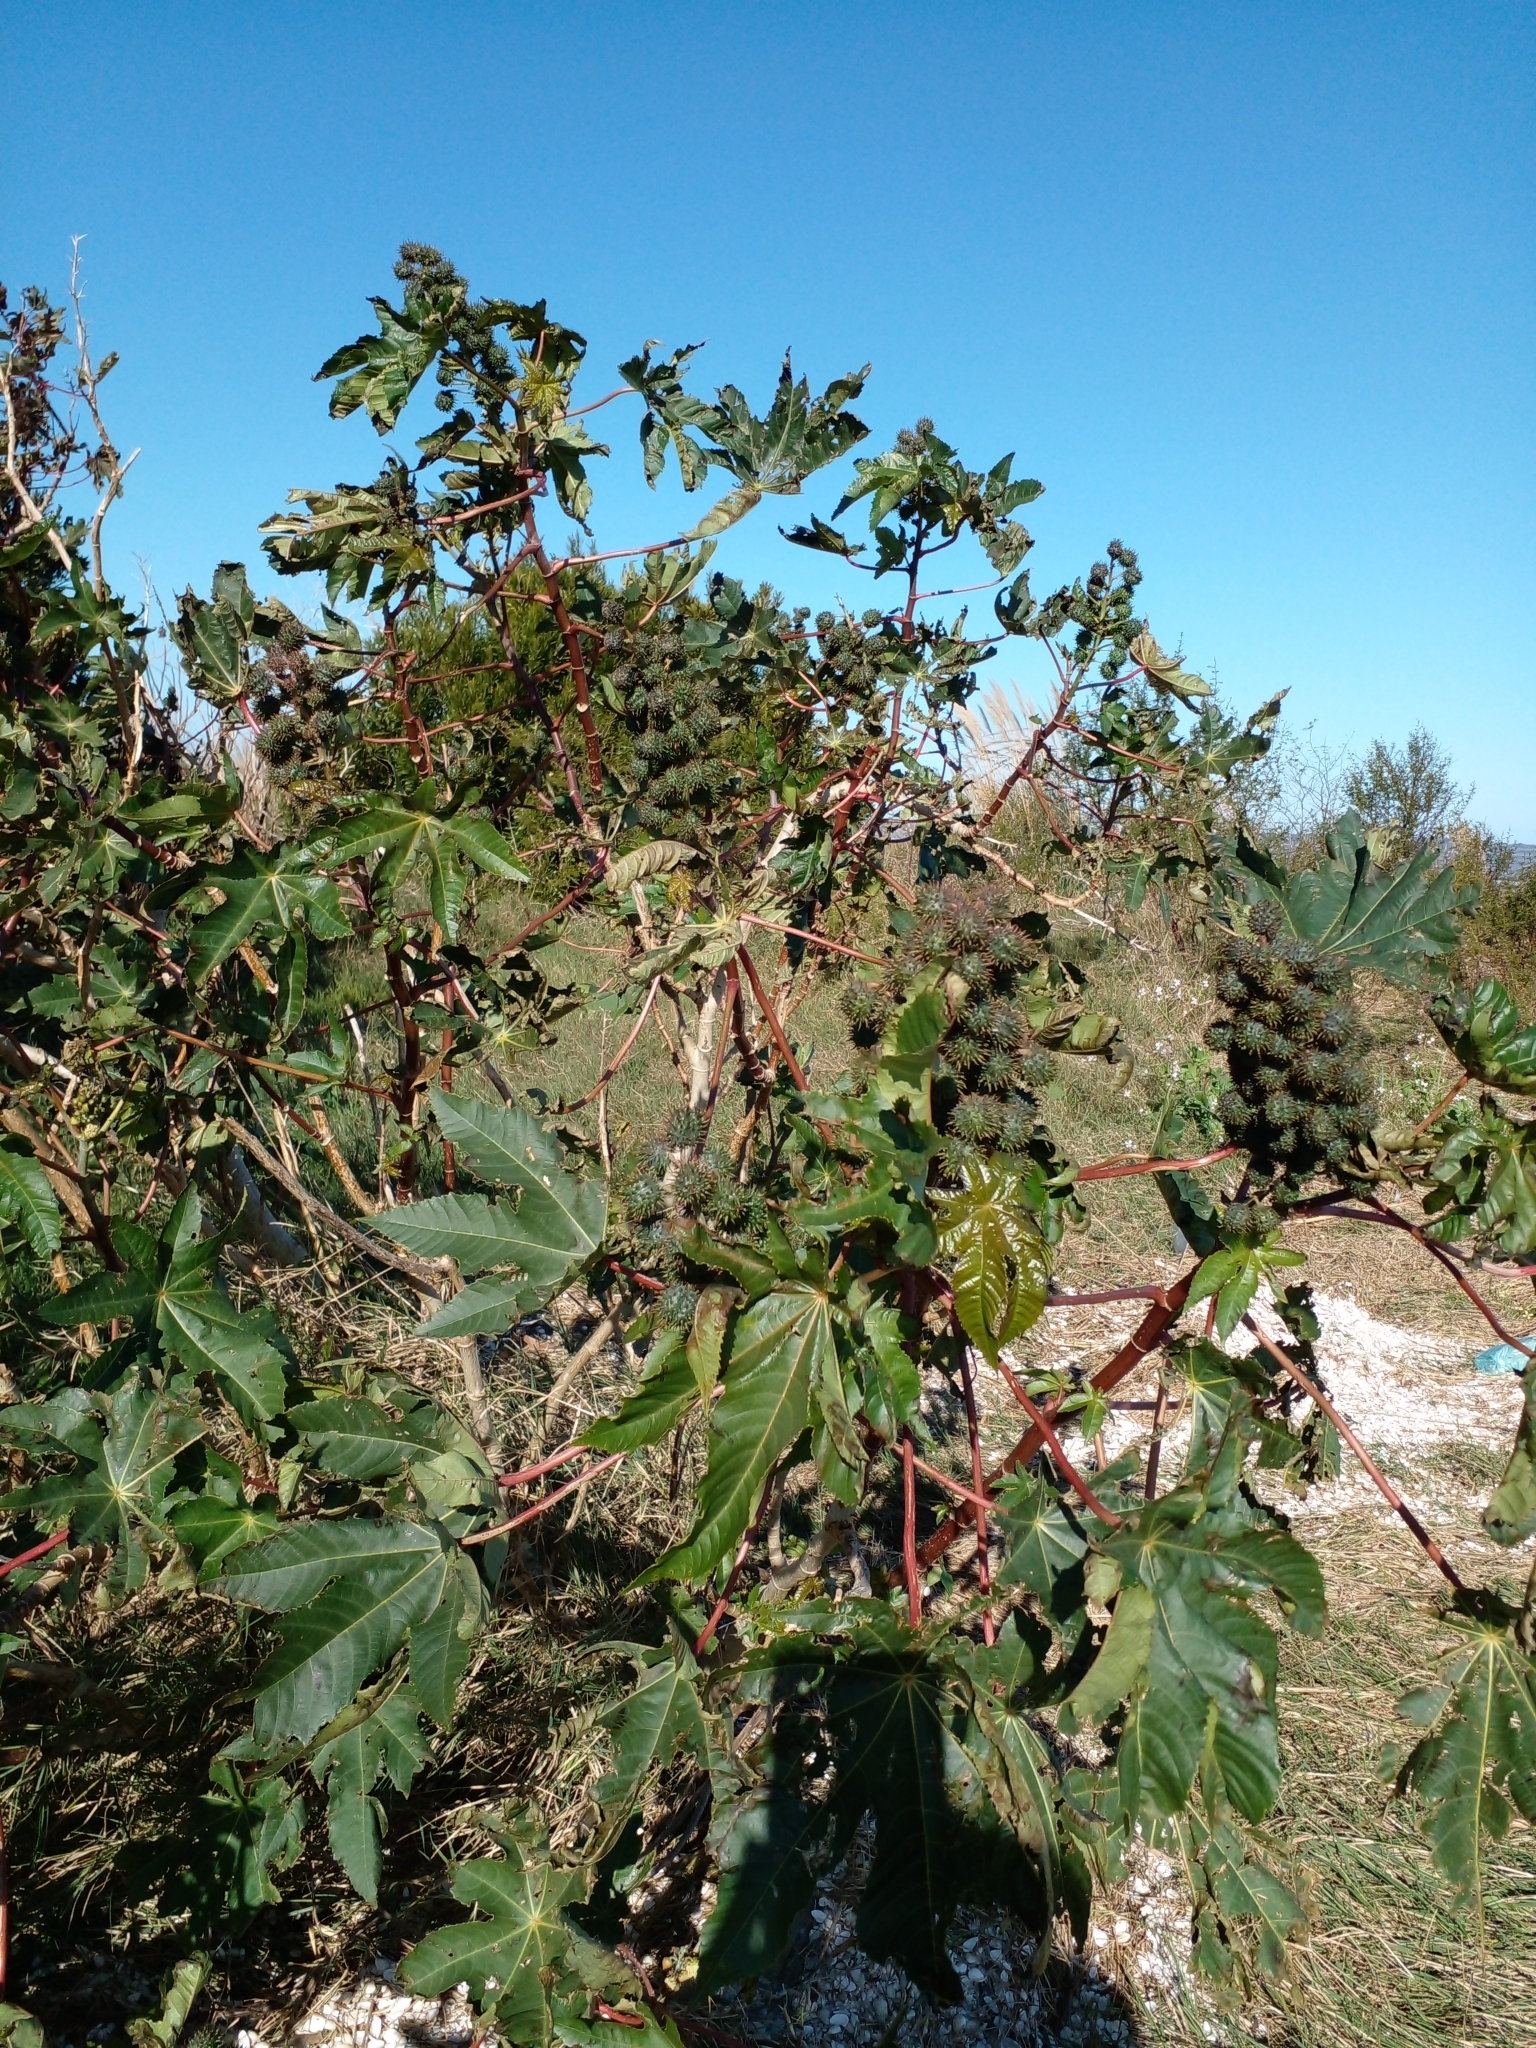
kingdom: Plantae
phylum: Tracheophyta
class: Magnoliopsida
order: Malpighiales
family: Euphorbiaceae
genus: Ricinus
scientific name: Ricinus communis
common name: Castor-oil-plant
